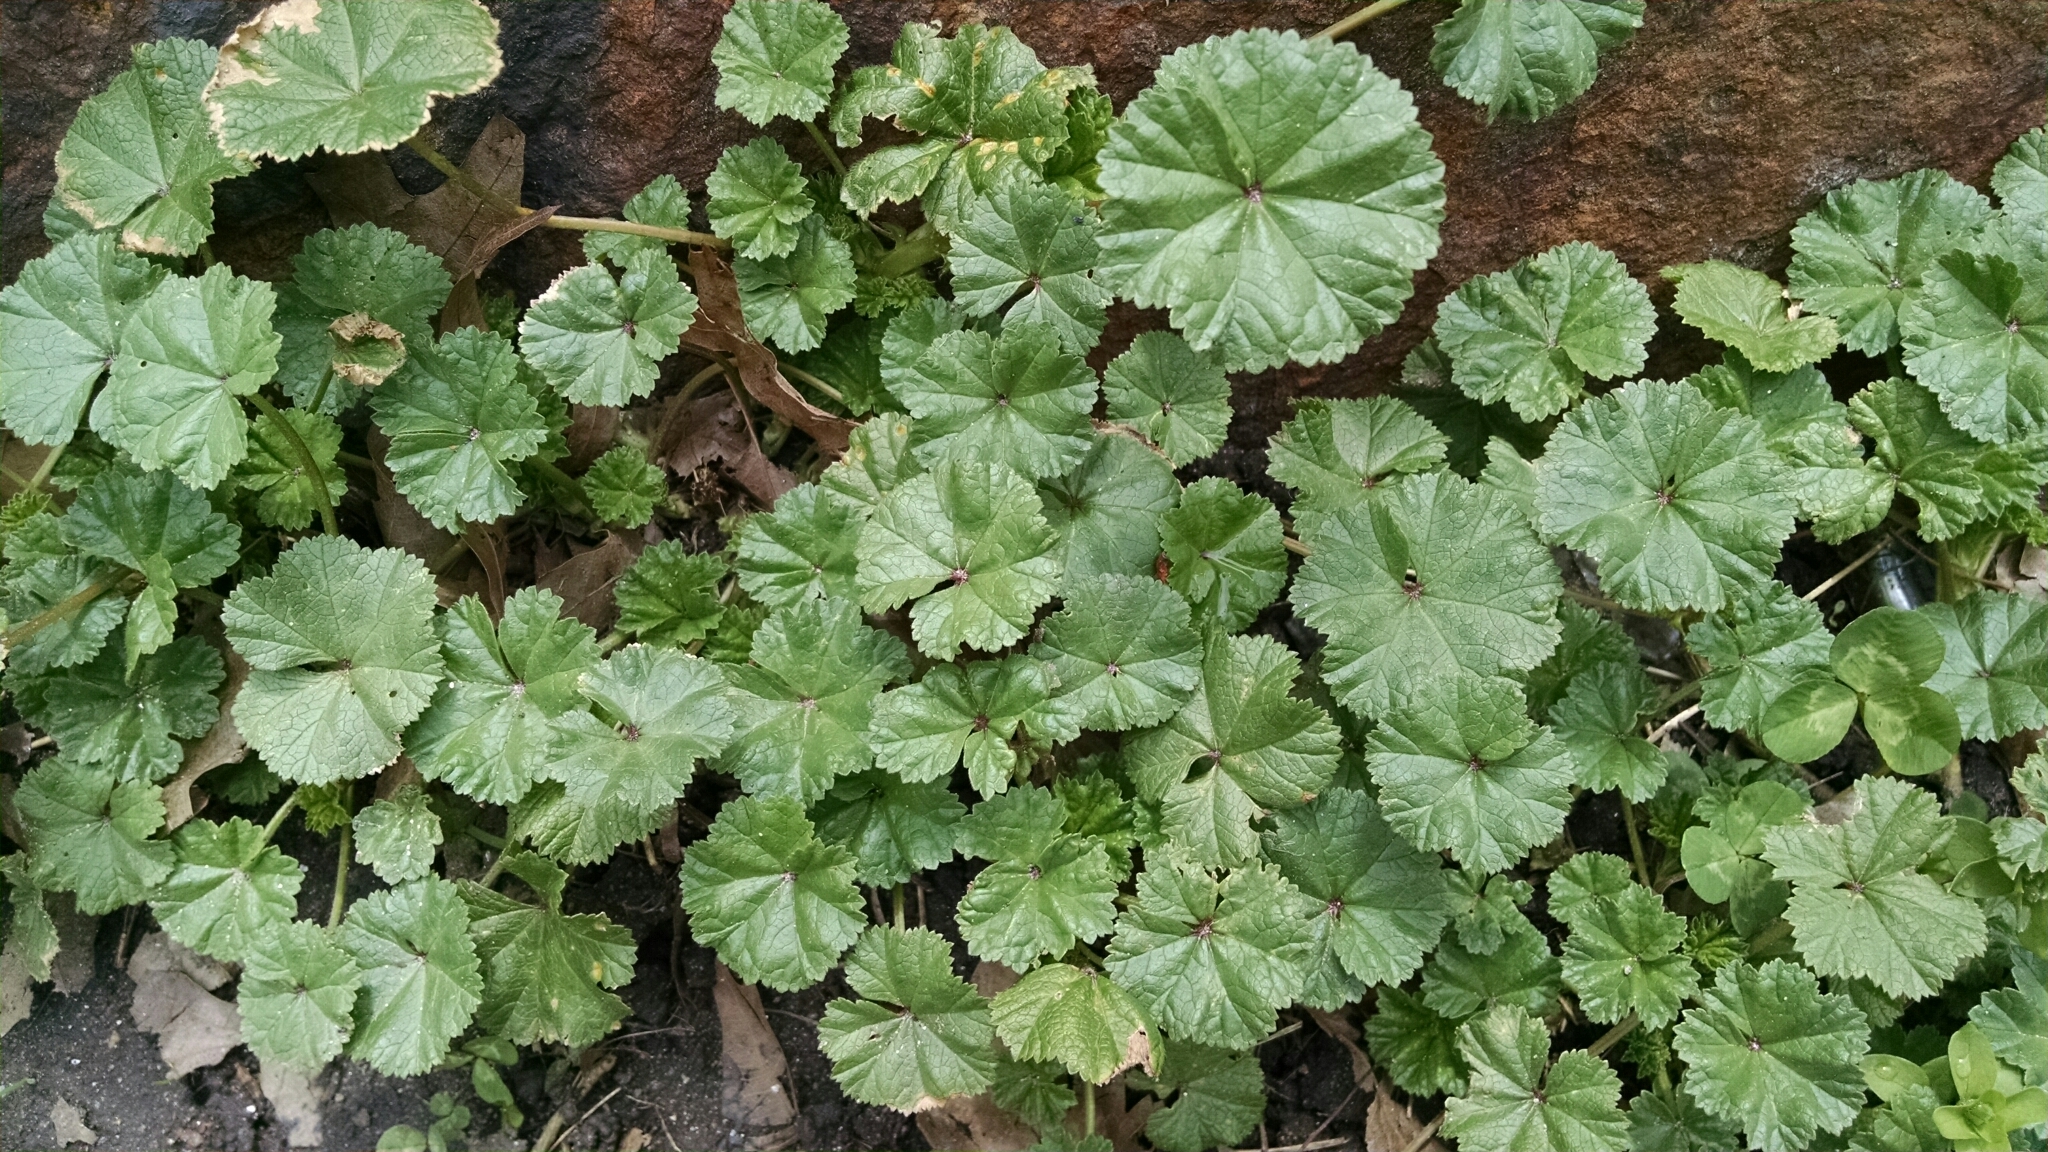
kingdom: Plantae
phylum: Tracheophyta
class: Magnoliopsida
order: Malvales
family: Malvaceae
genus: Malva
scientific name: Malva neglecta
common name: Common mallow
